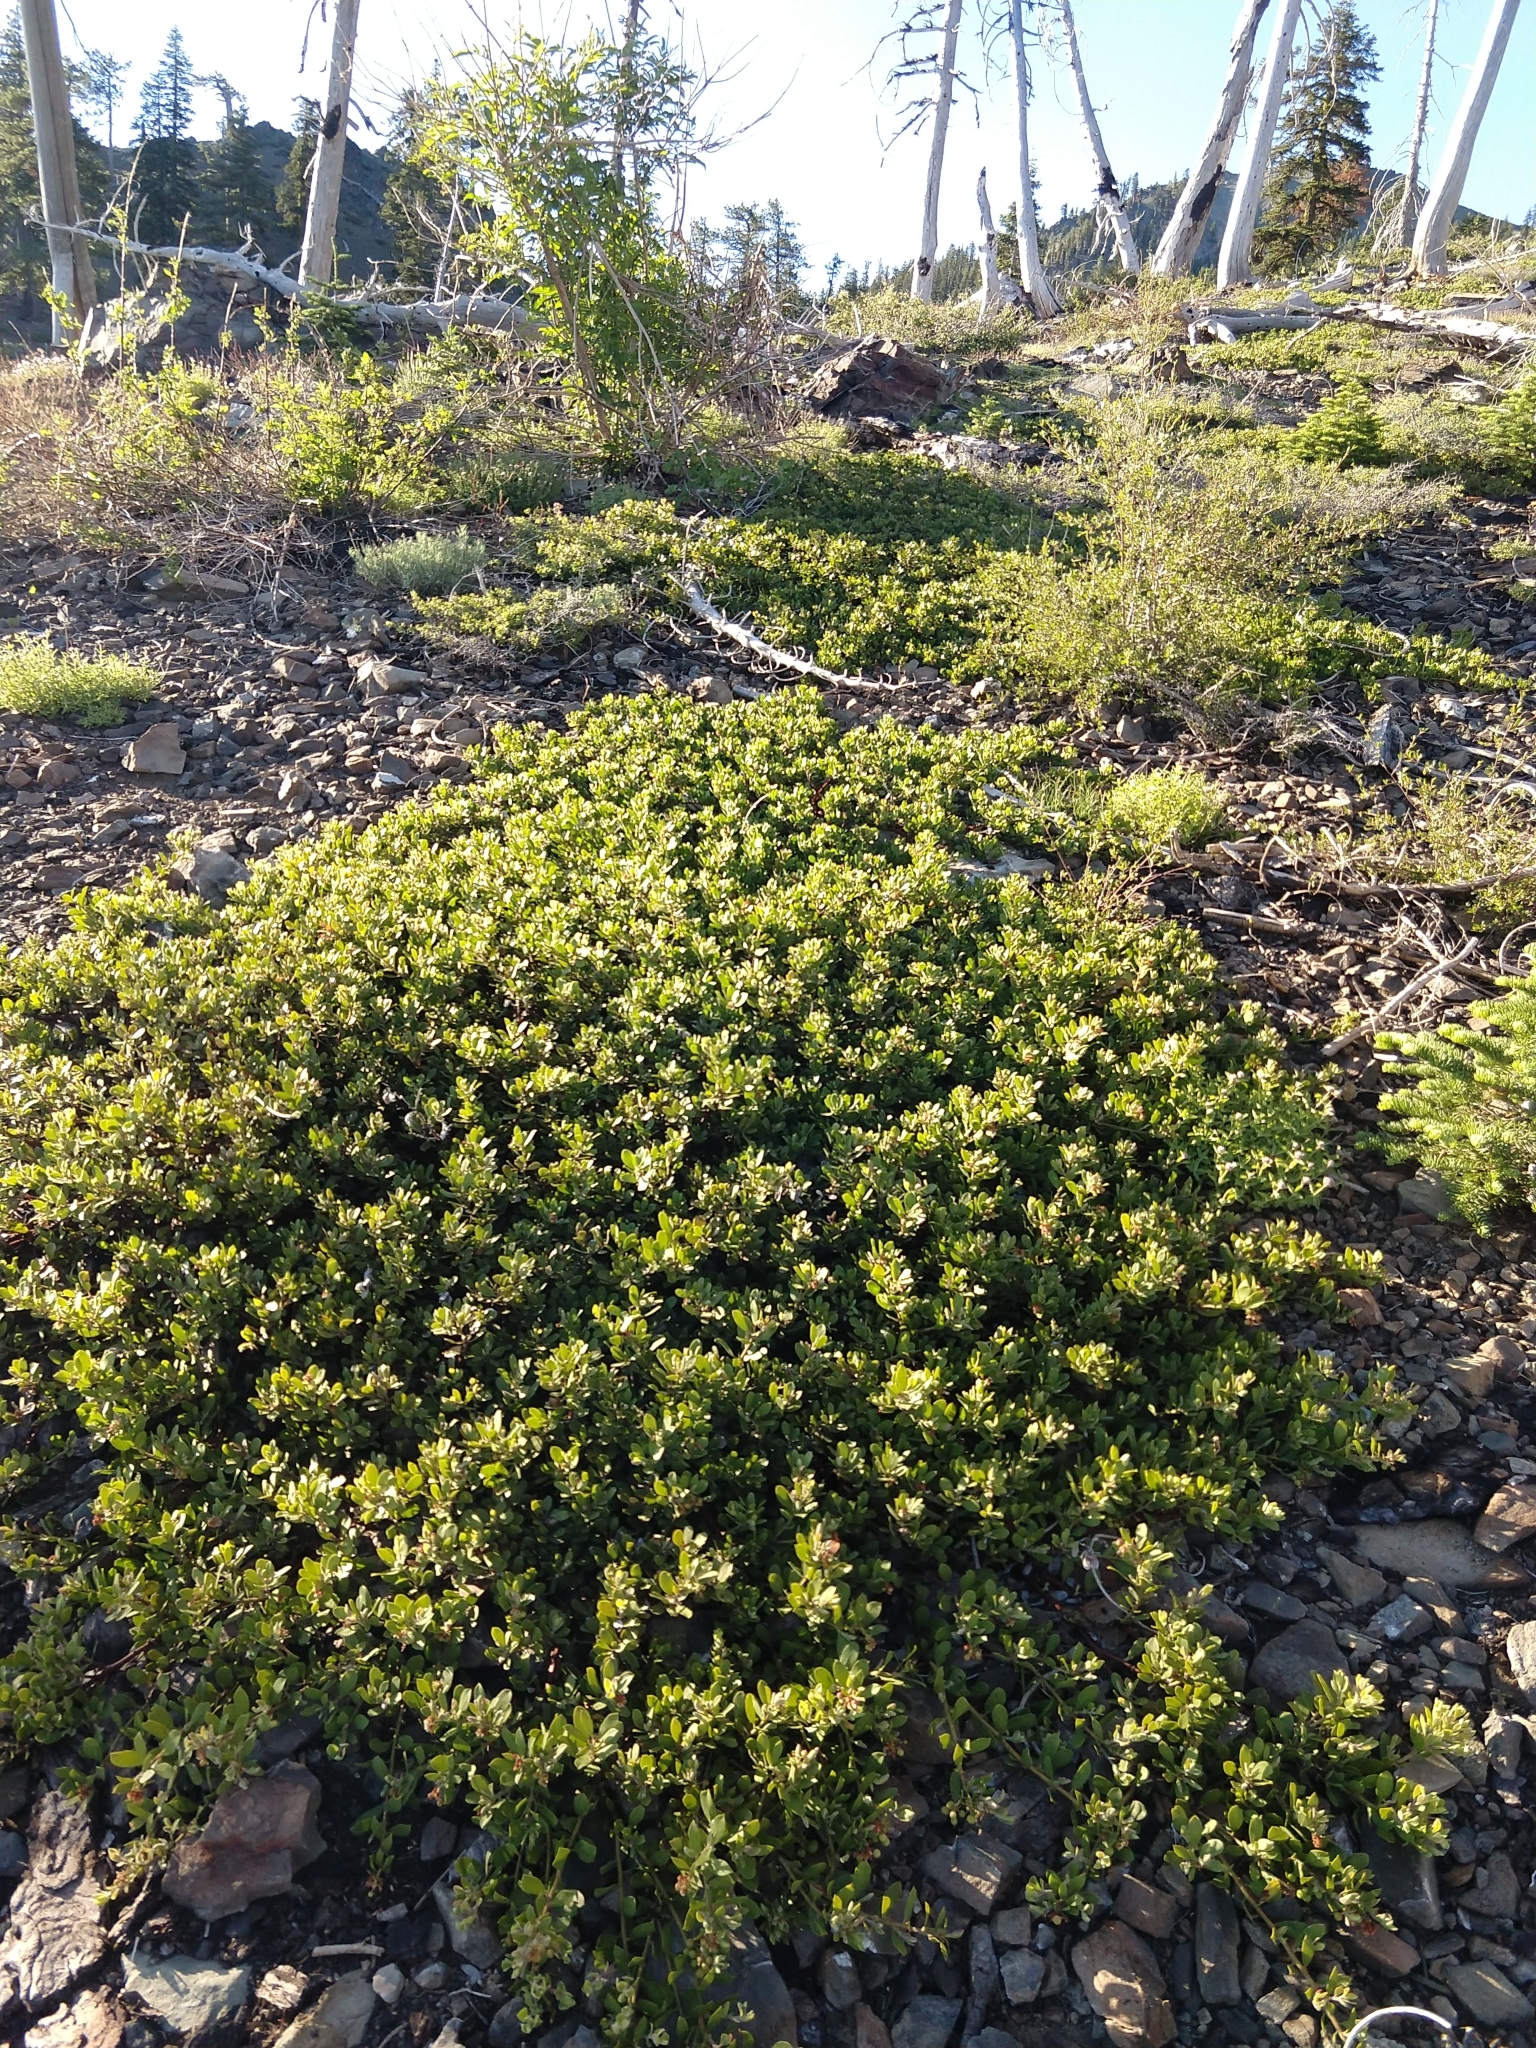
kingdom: Plantae
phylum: Tracheophyta
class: Magnoliopsida
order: Ericales
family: Ericaceae
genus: Arctostaphylos
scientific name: Arctostaphylos nevadensis
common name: Pinemat manzanita
